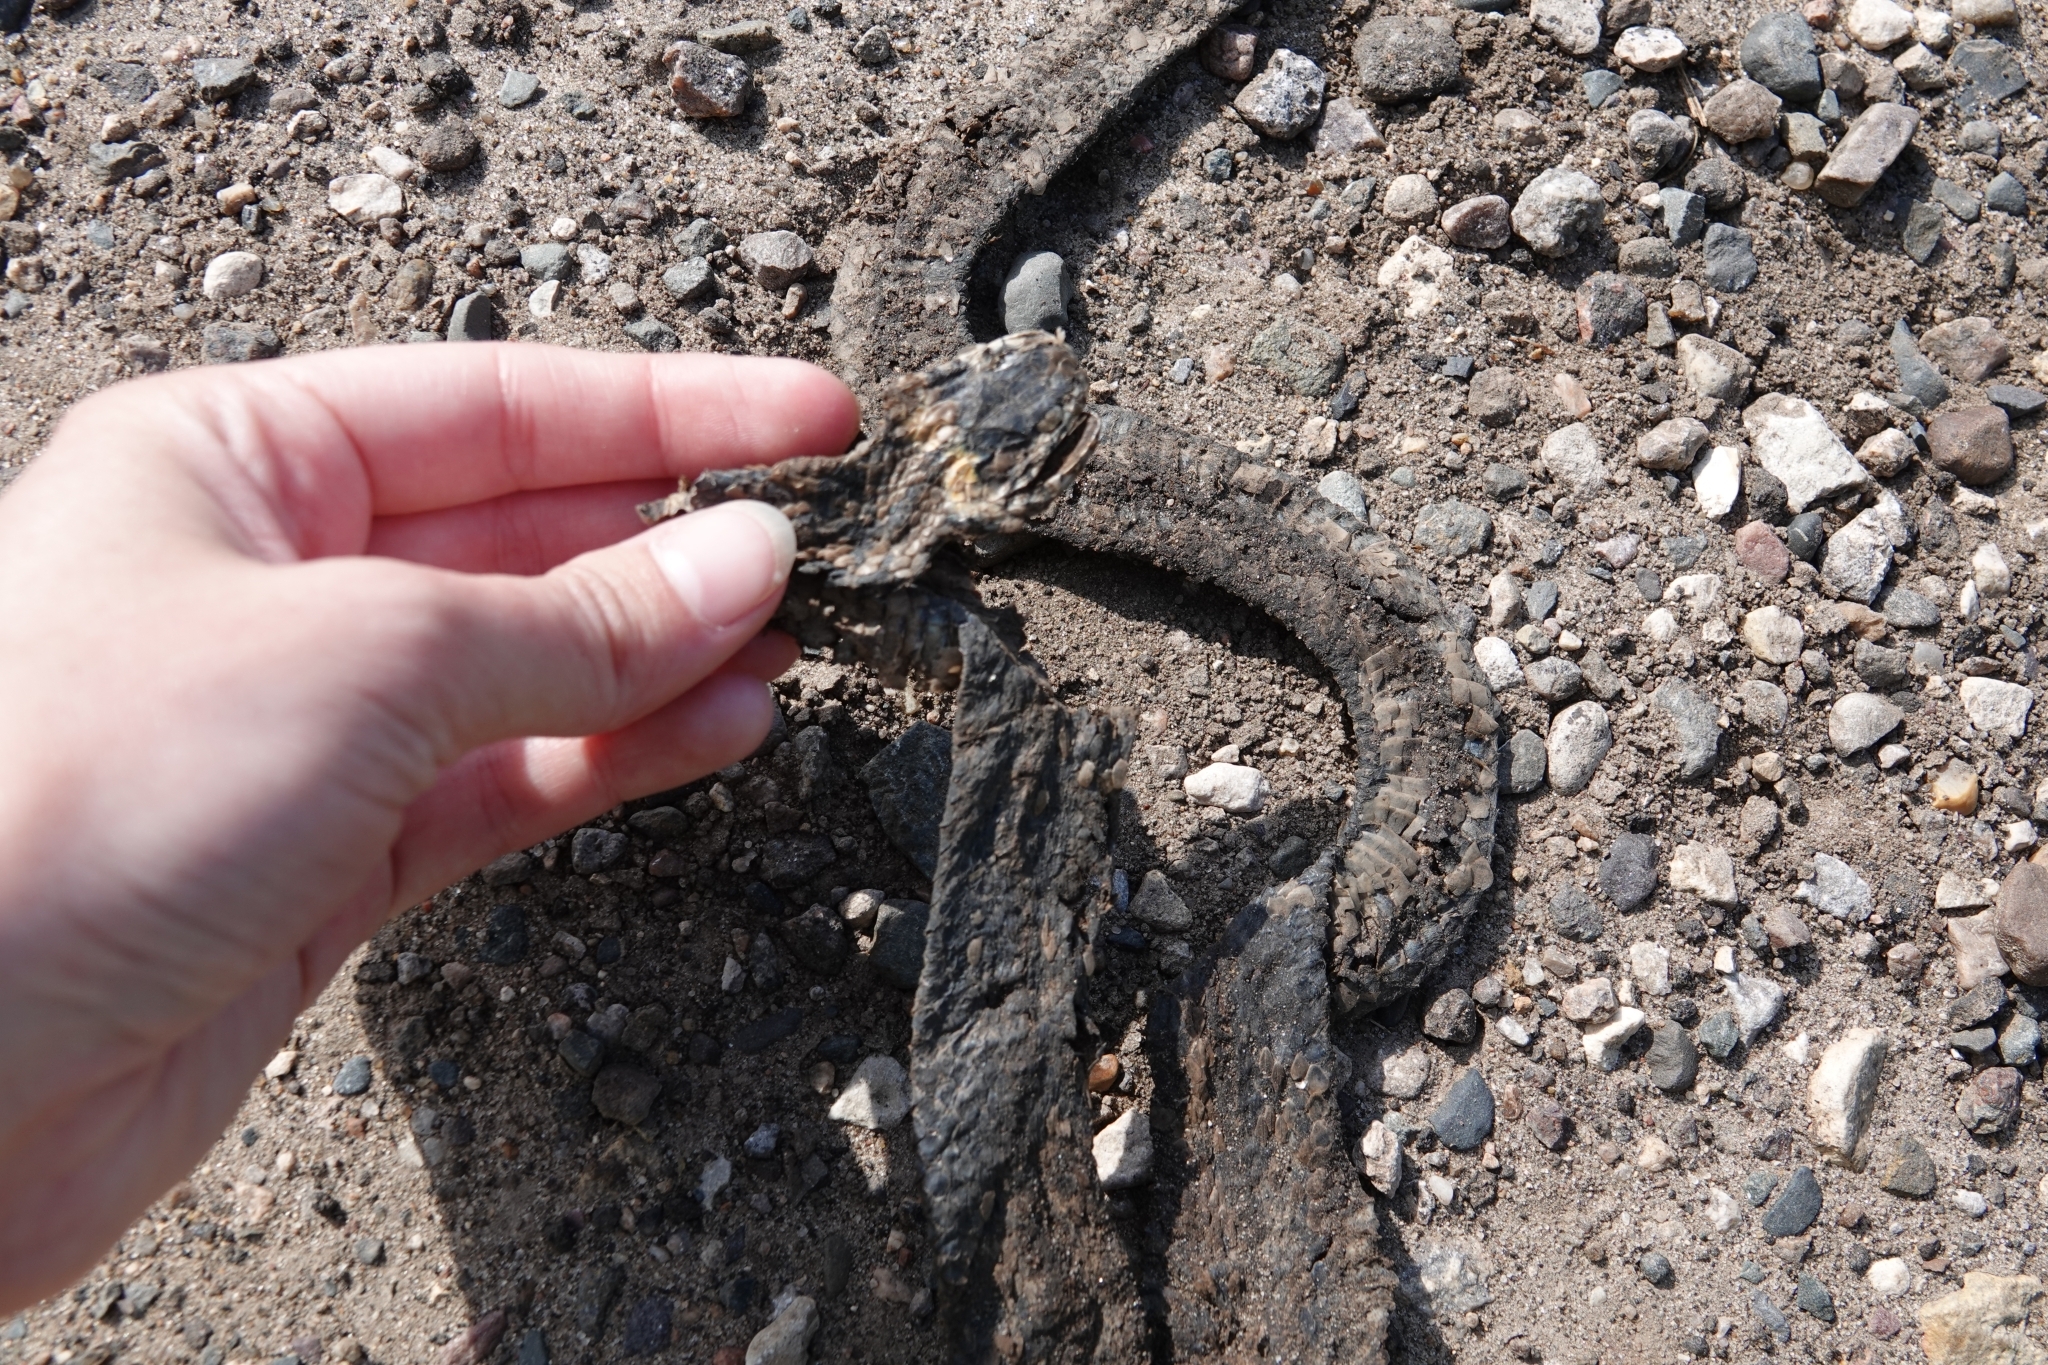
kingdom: Animalia
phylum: Chordata
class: Squamata
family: Colubridae
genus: Natrix
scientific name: Natrix natrix
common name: Grass snake
